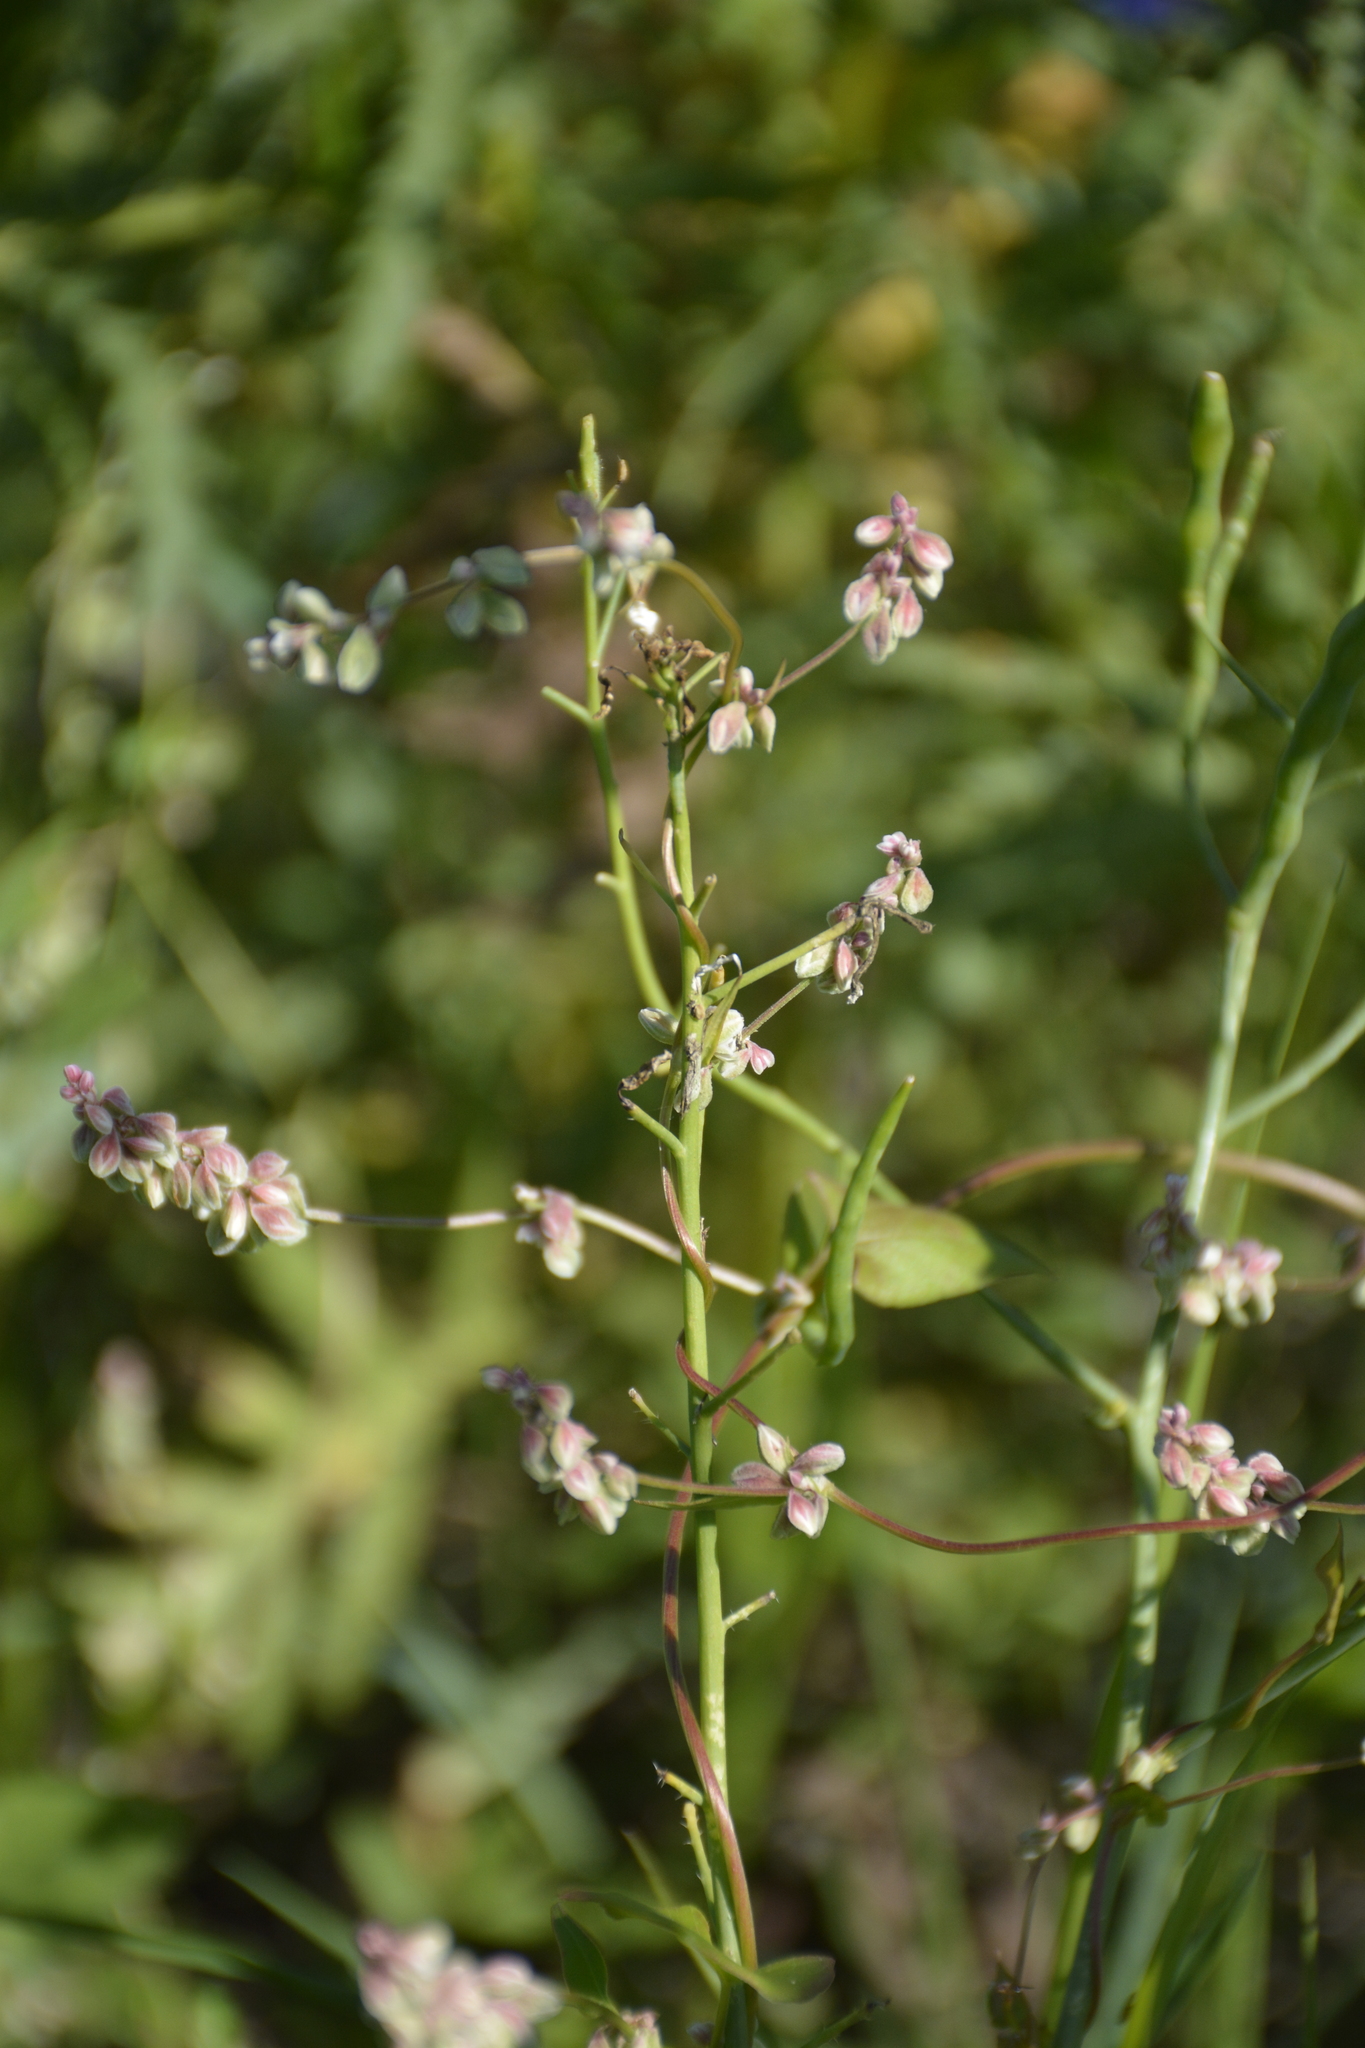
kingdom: Plantae
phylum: Tracheophyta
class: Magnoliopsida
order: Caryophyllales
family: Polygonaceae
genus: Fallopia
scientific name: Fallopia convolvulus
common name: Black bindweed
